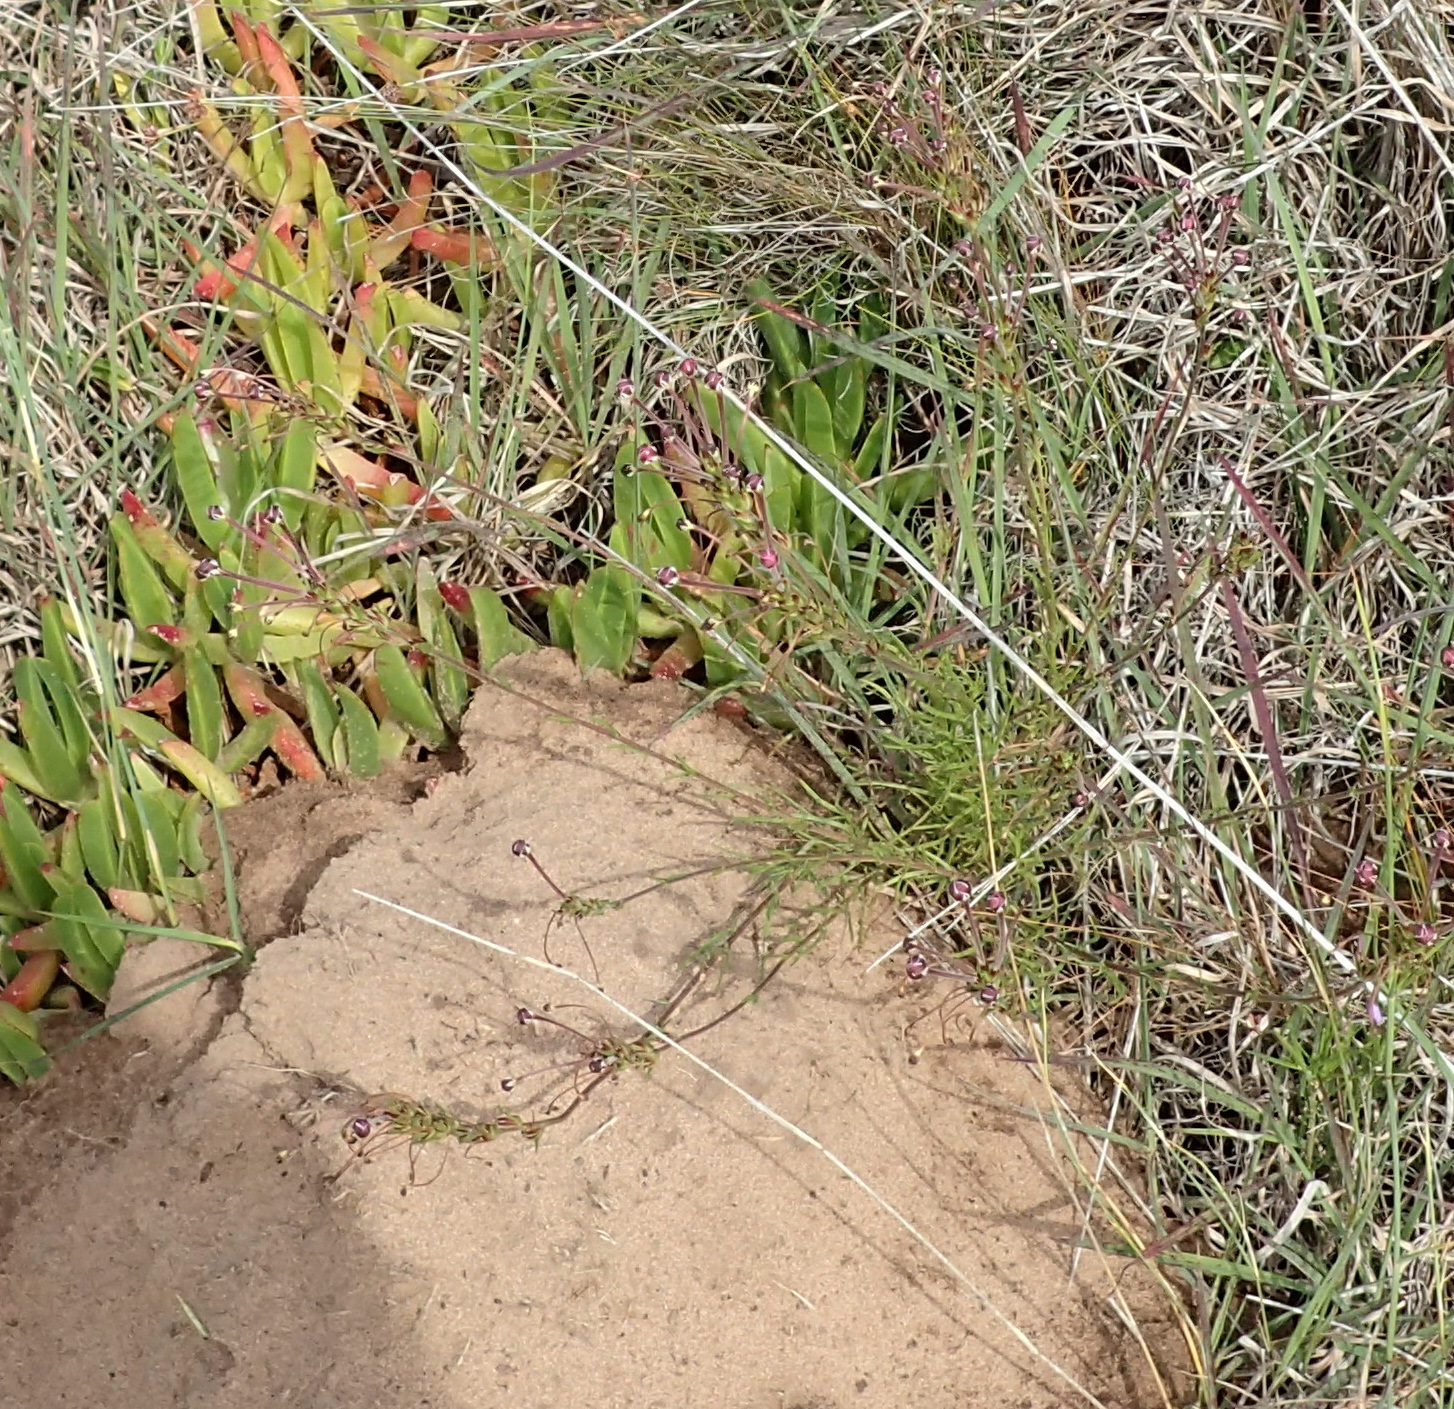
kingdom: Plantae
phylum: Tracheophyta
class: Magnoliopsida
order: Lamiales
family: Scrophulariaceae
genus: Zaluzianskya
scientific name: Zaluzianskya capensis
